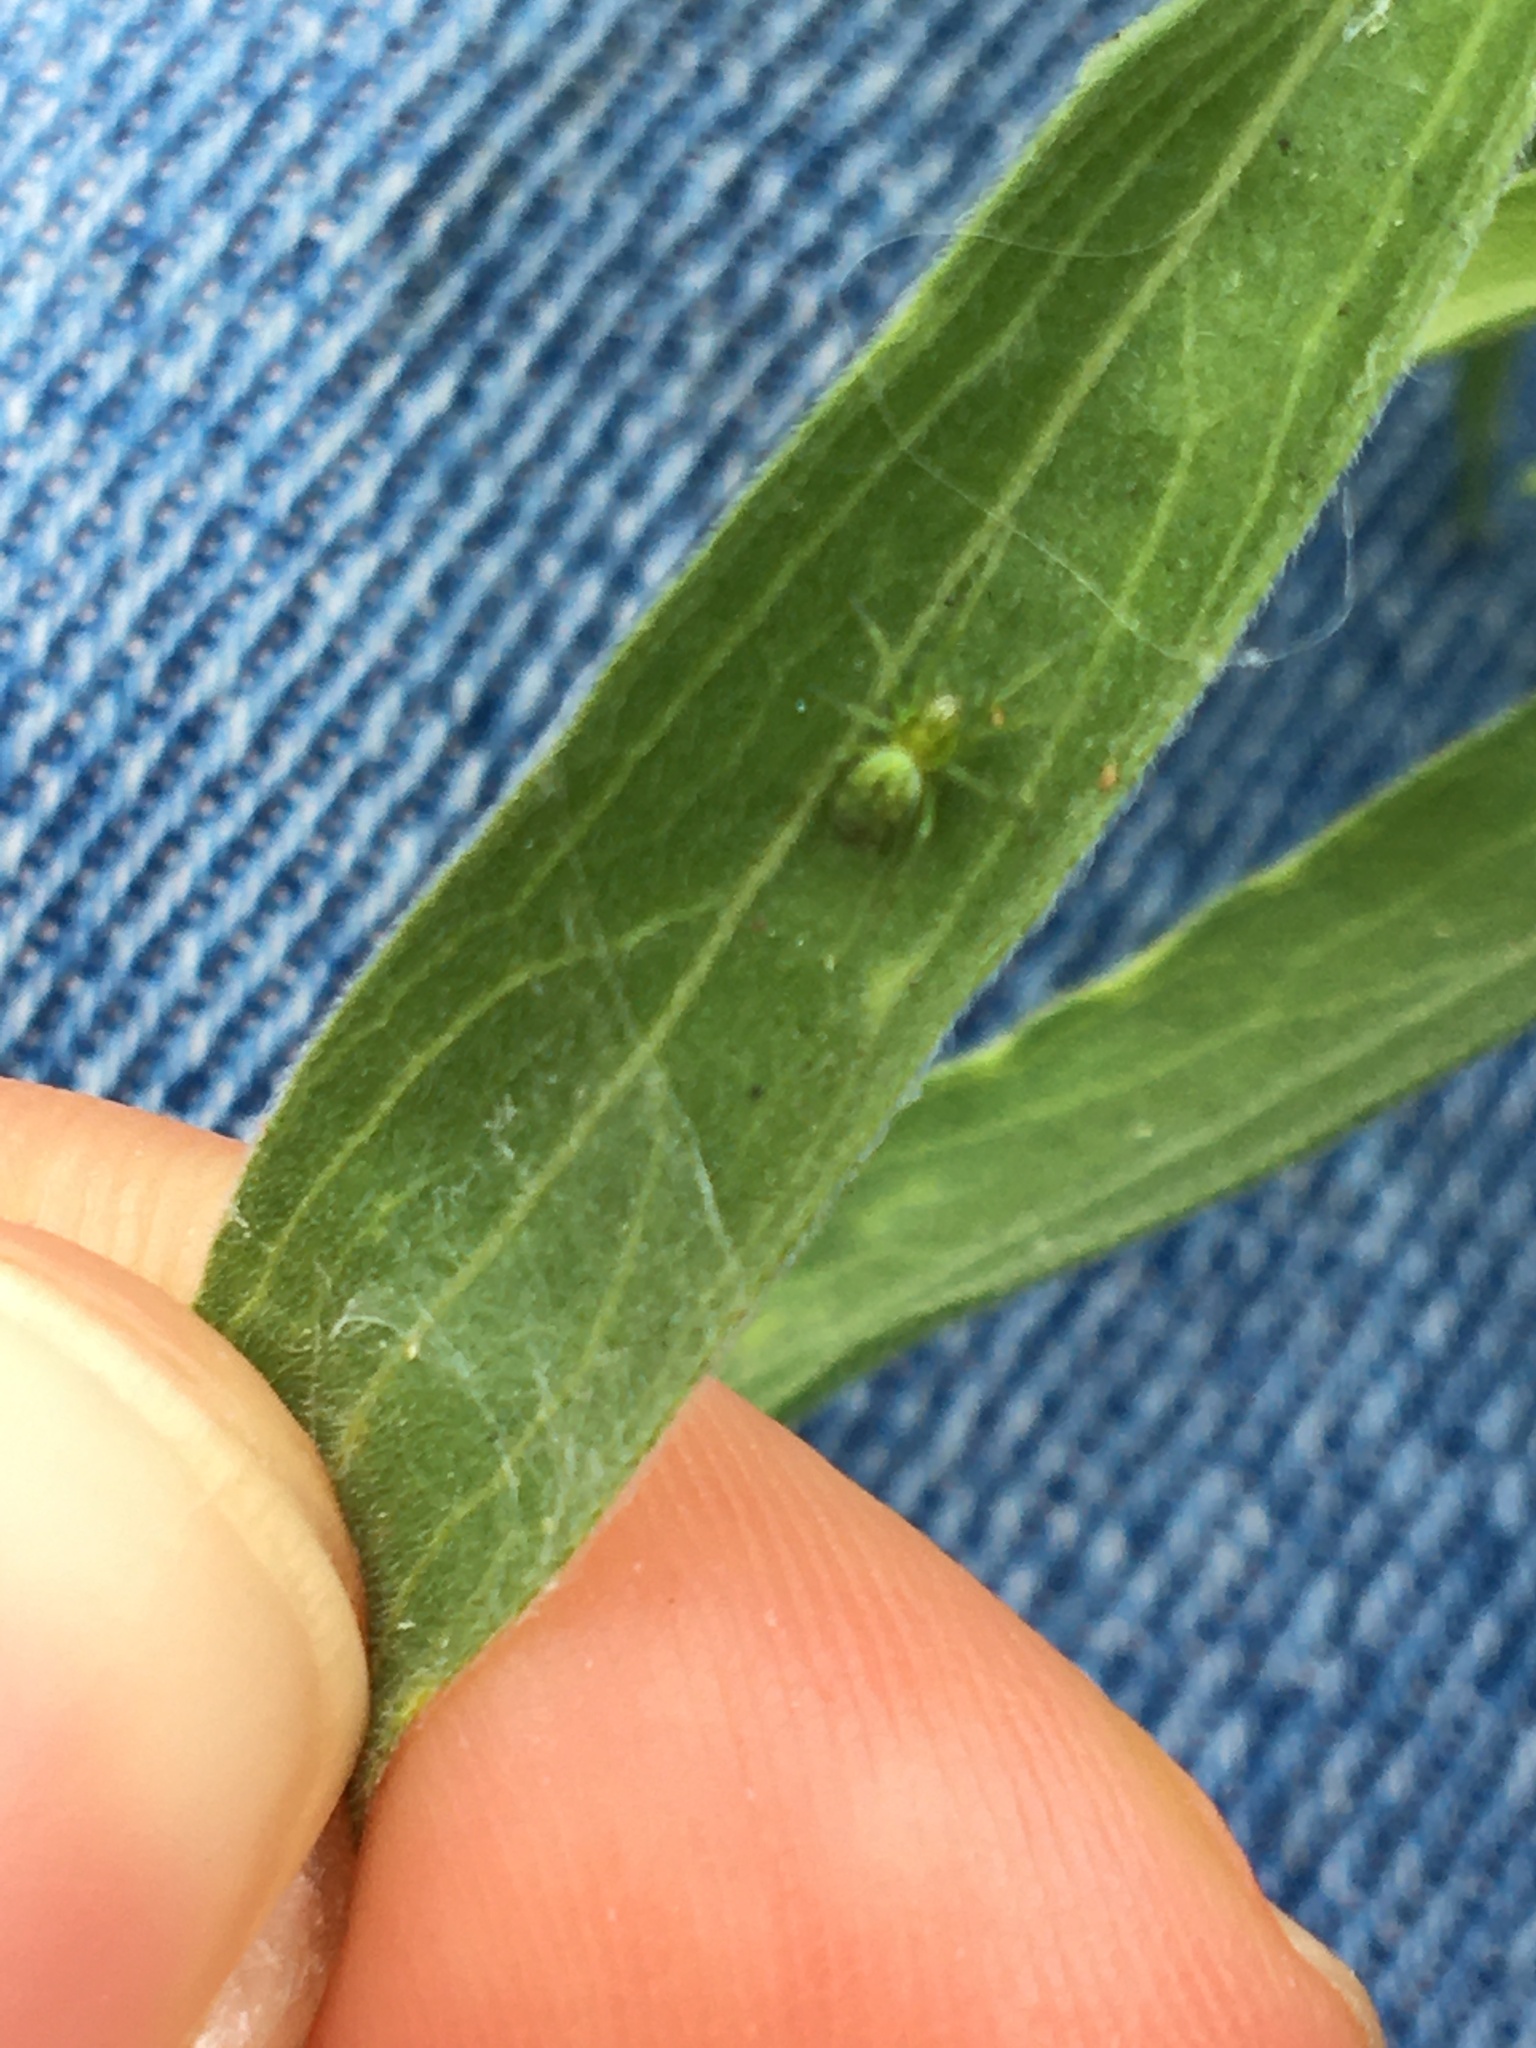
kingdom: Animalia
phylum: Arthropoda
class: Arachnida
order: Araneae
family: Dictynidae
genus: Nigma
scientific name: Nigma walckenaeri
